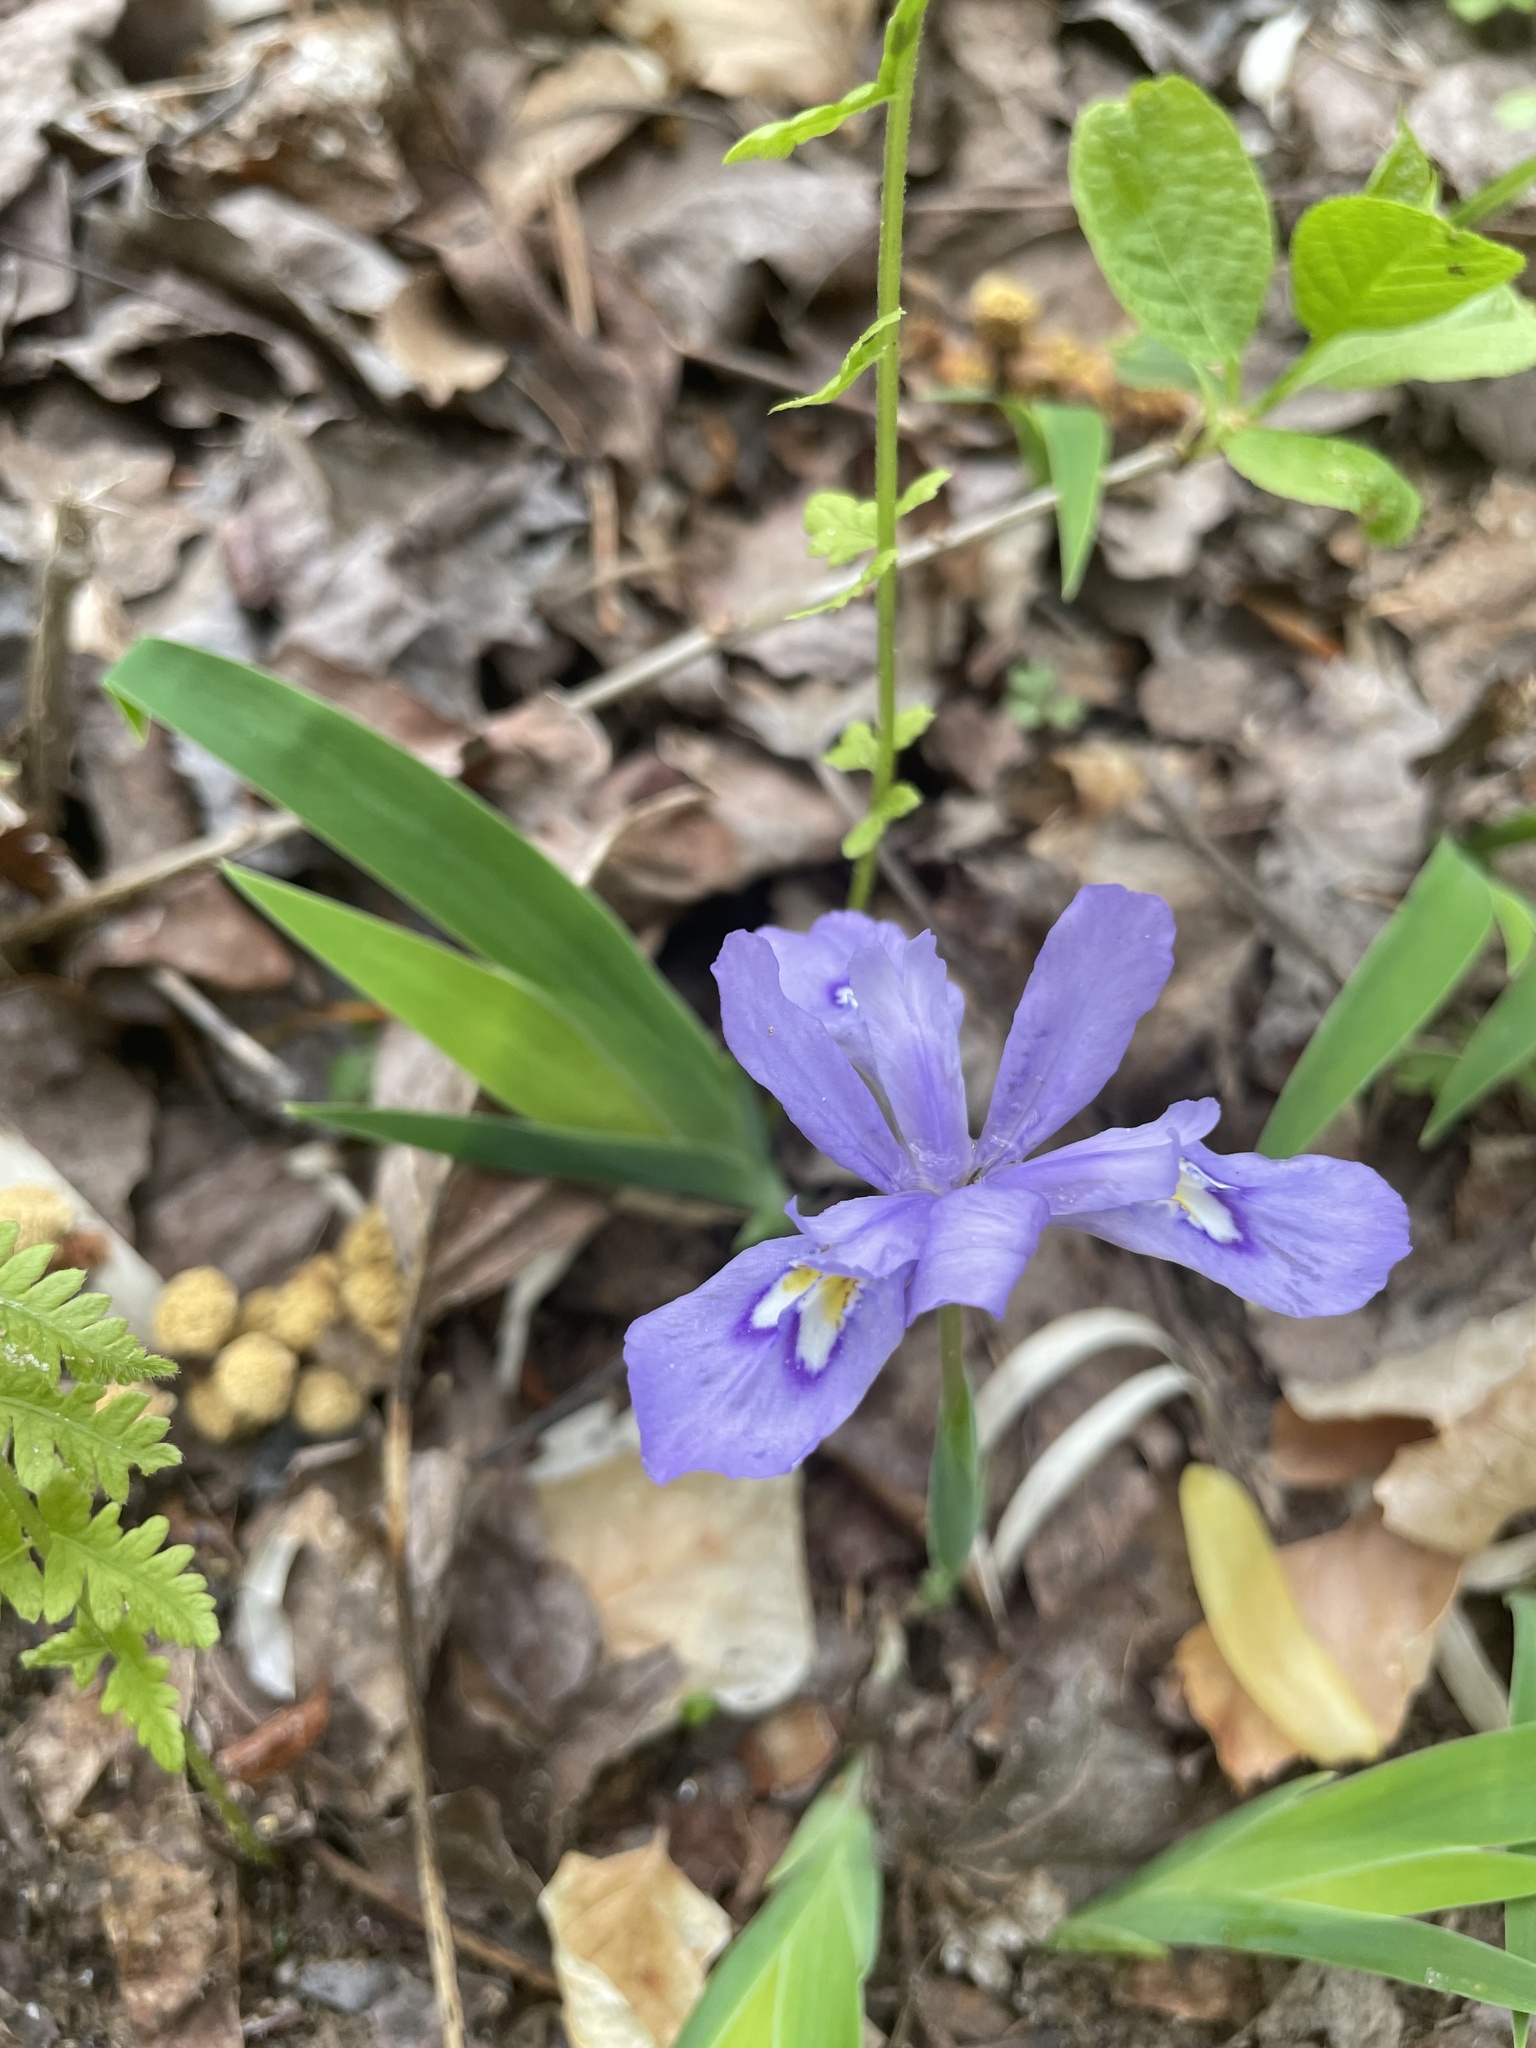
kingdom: Plantae
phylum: Tracheophyta
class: Liliopsida
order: Asparagales
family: Iridaceae
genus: Iris
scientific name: Iris cristata
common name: Crested iris
